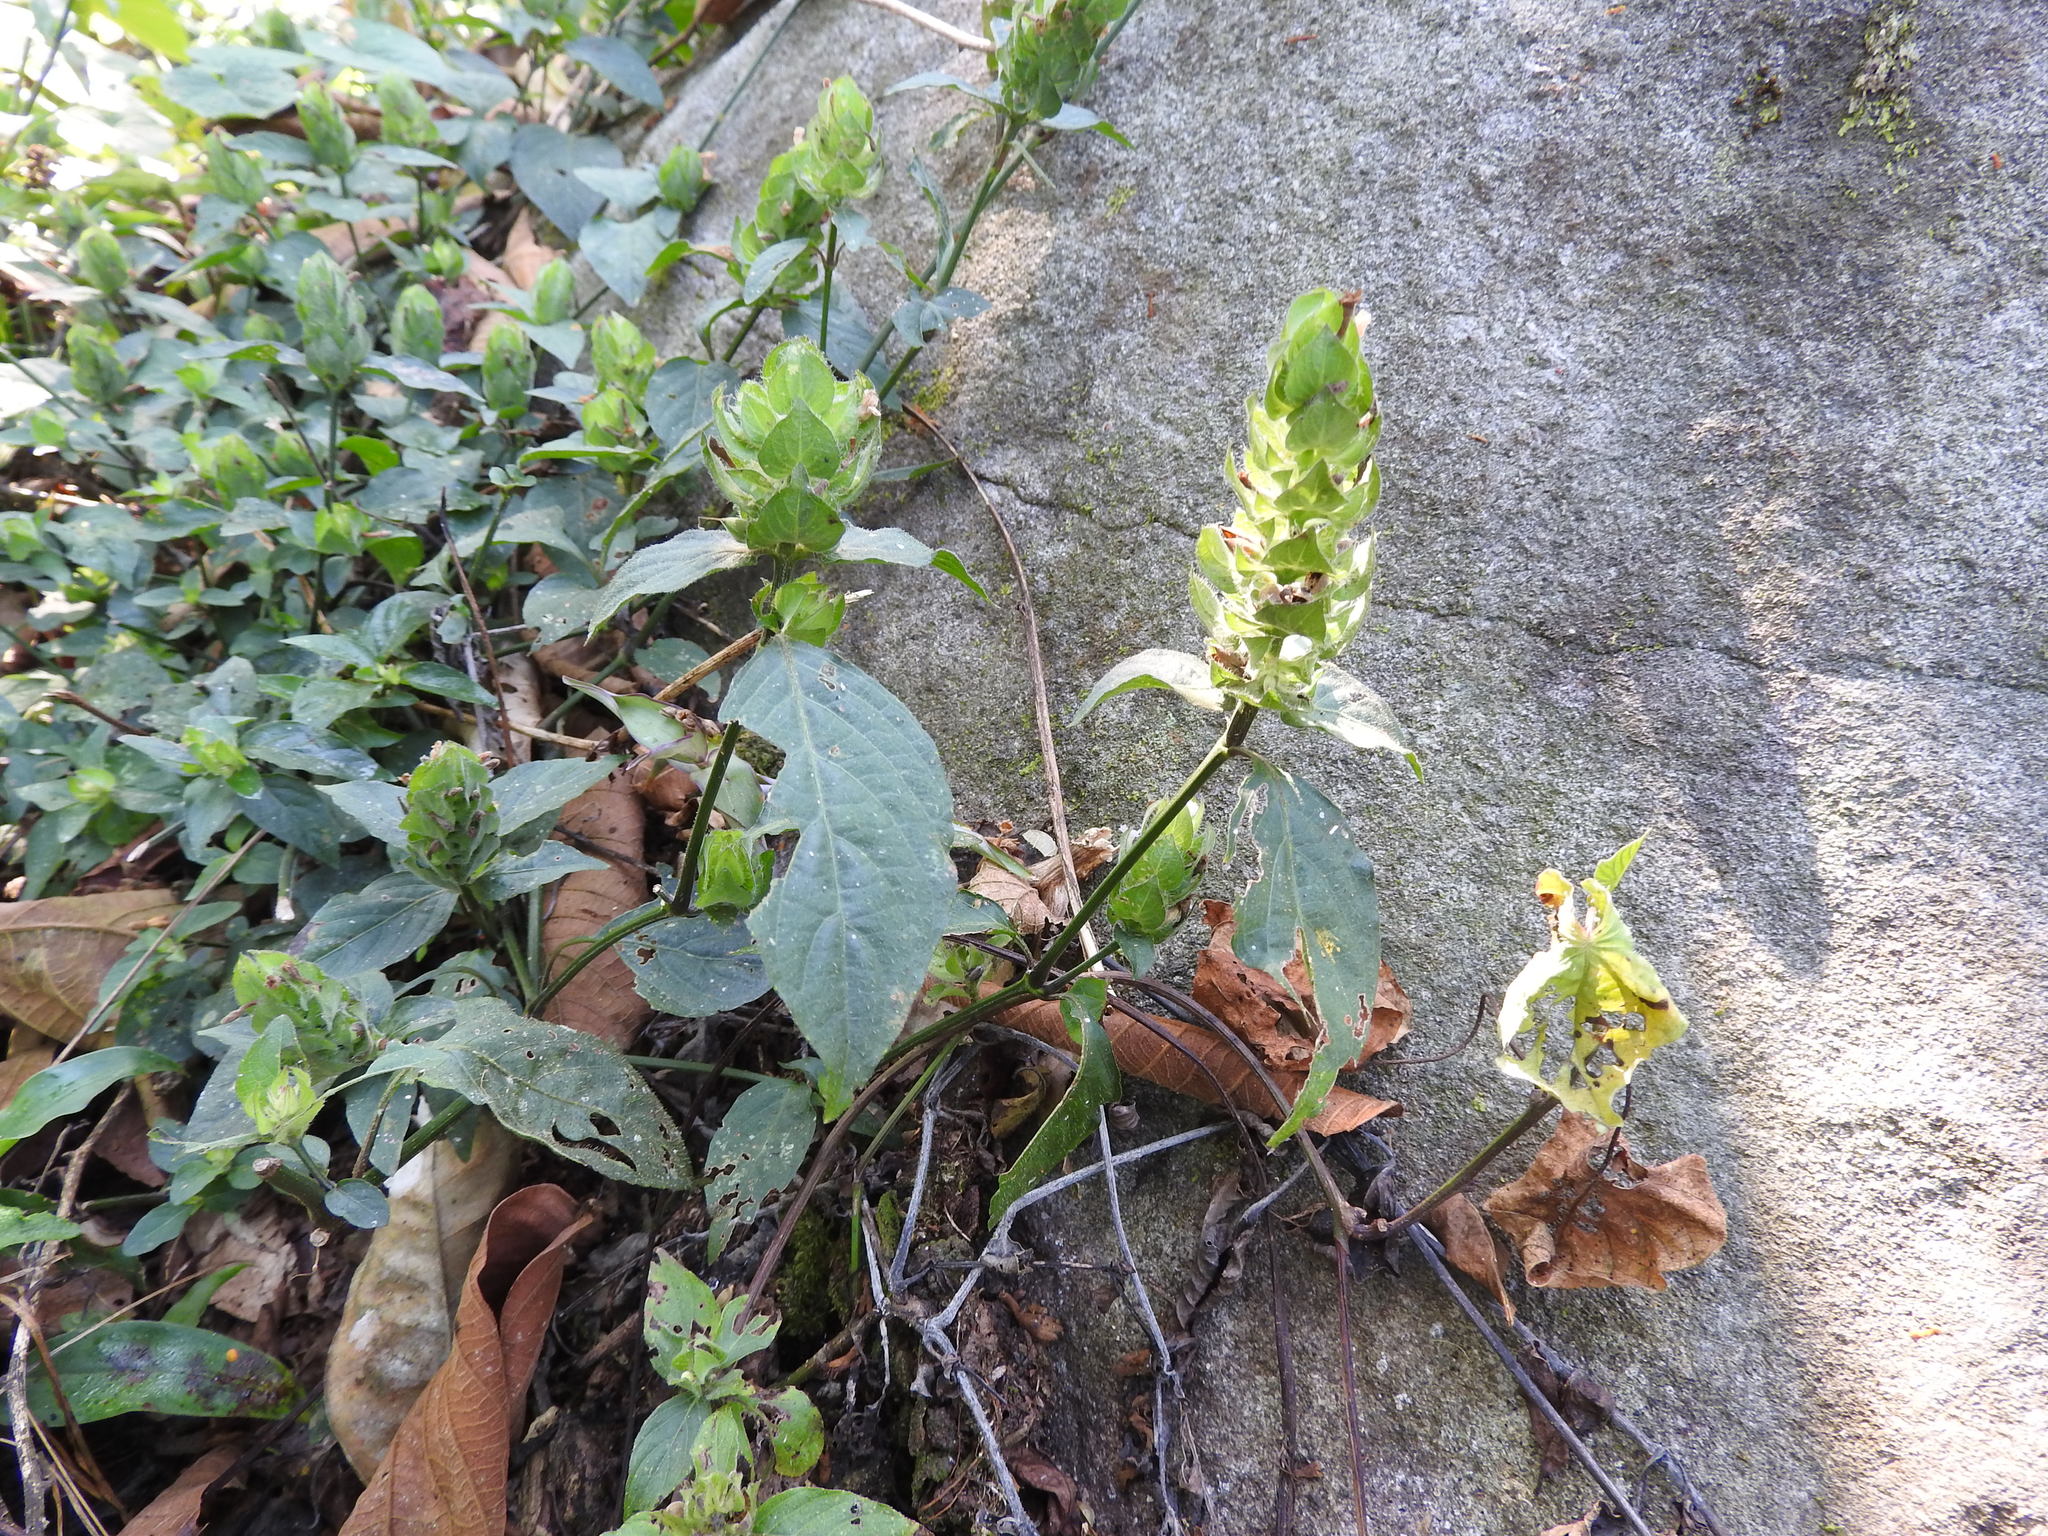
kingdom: Plantae
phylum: Tracheophyta
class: Magnoliopsida
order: Lamiales
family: Acanthaceae
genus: Ruellia
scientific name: Ruellia blechum
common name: Browne's blechum
